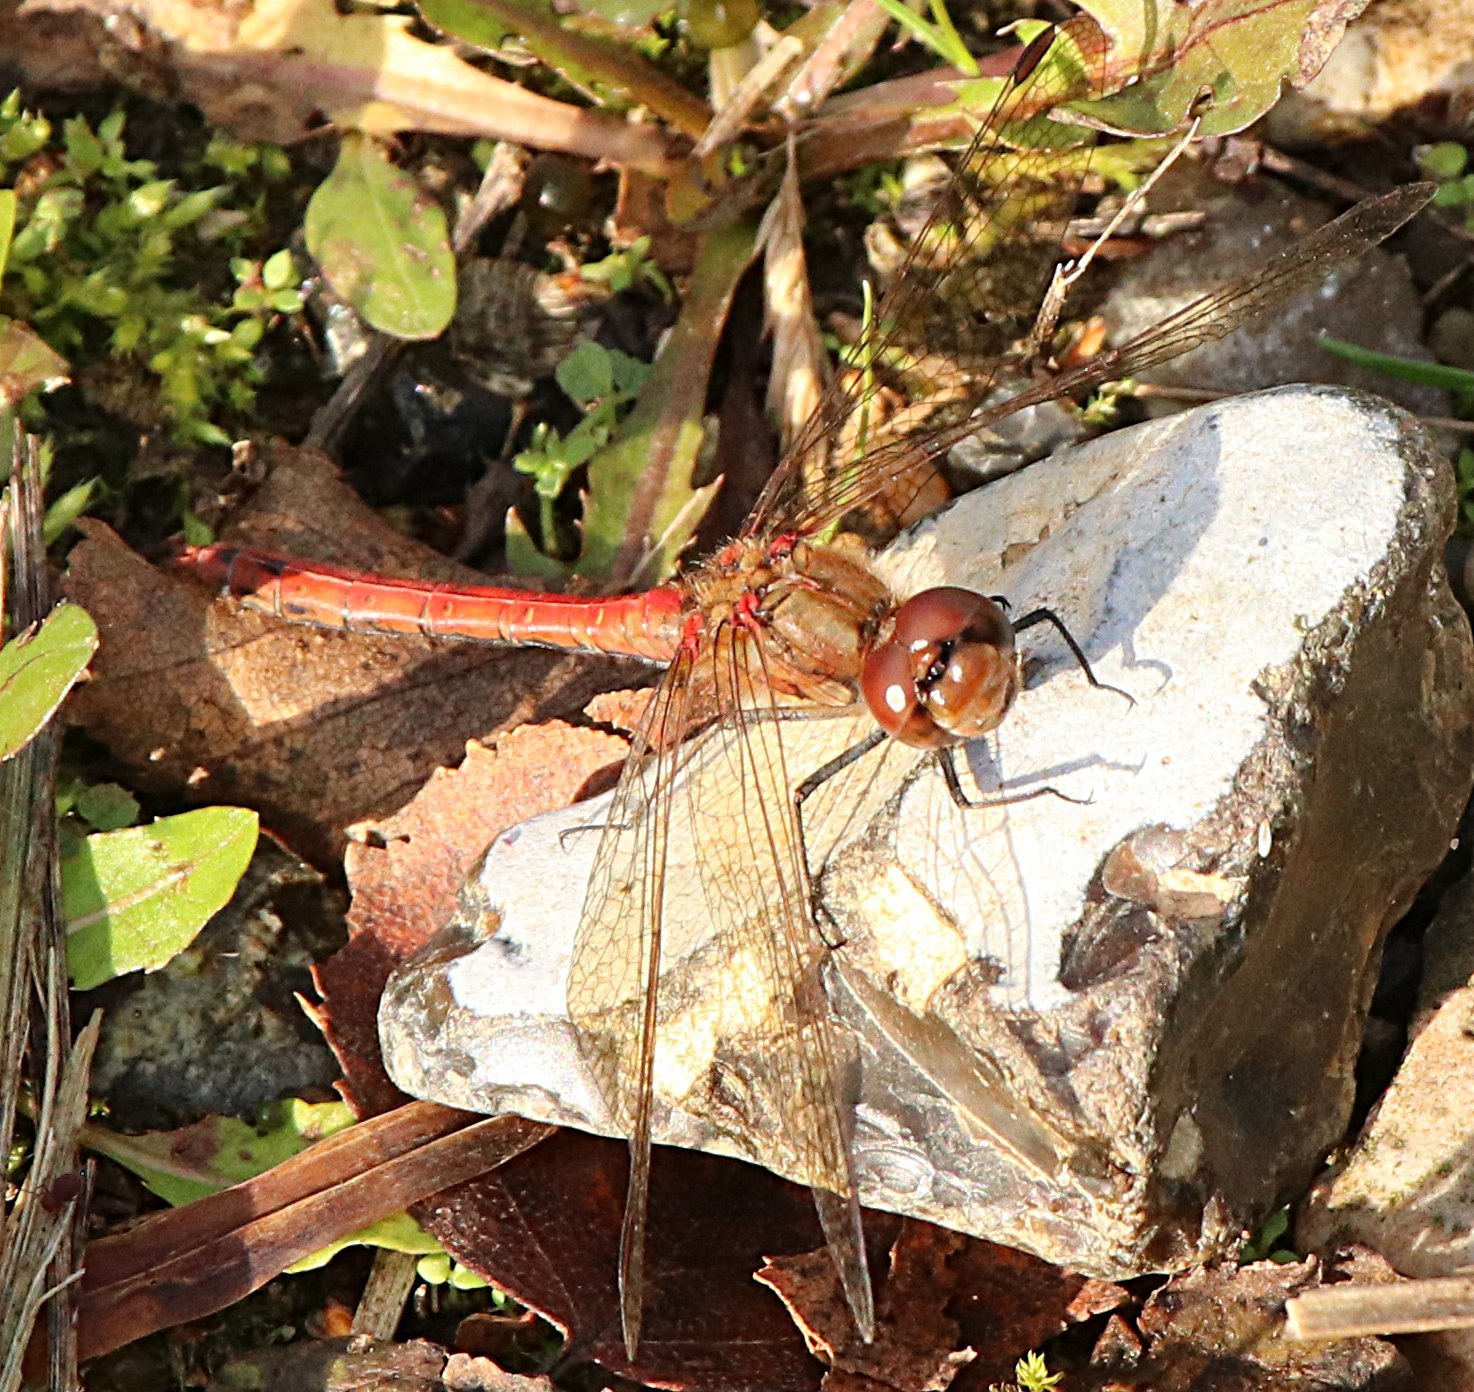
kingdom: Animalia
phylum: Arthropoda
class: Insecta
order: Odonata
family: Libellulidae
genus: Sympetrum
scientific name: Sympetrum striolatum
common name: Common darter
